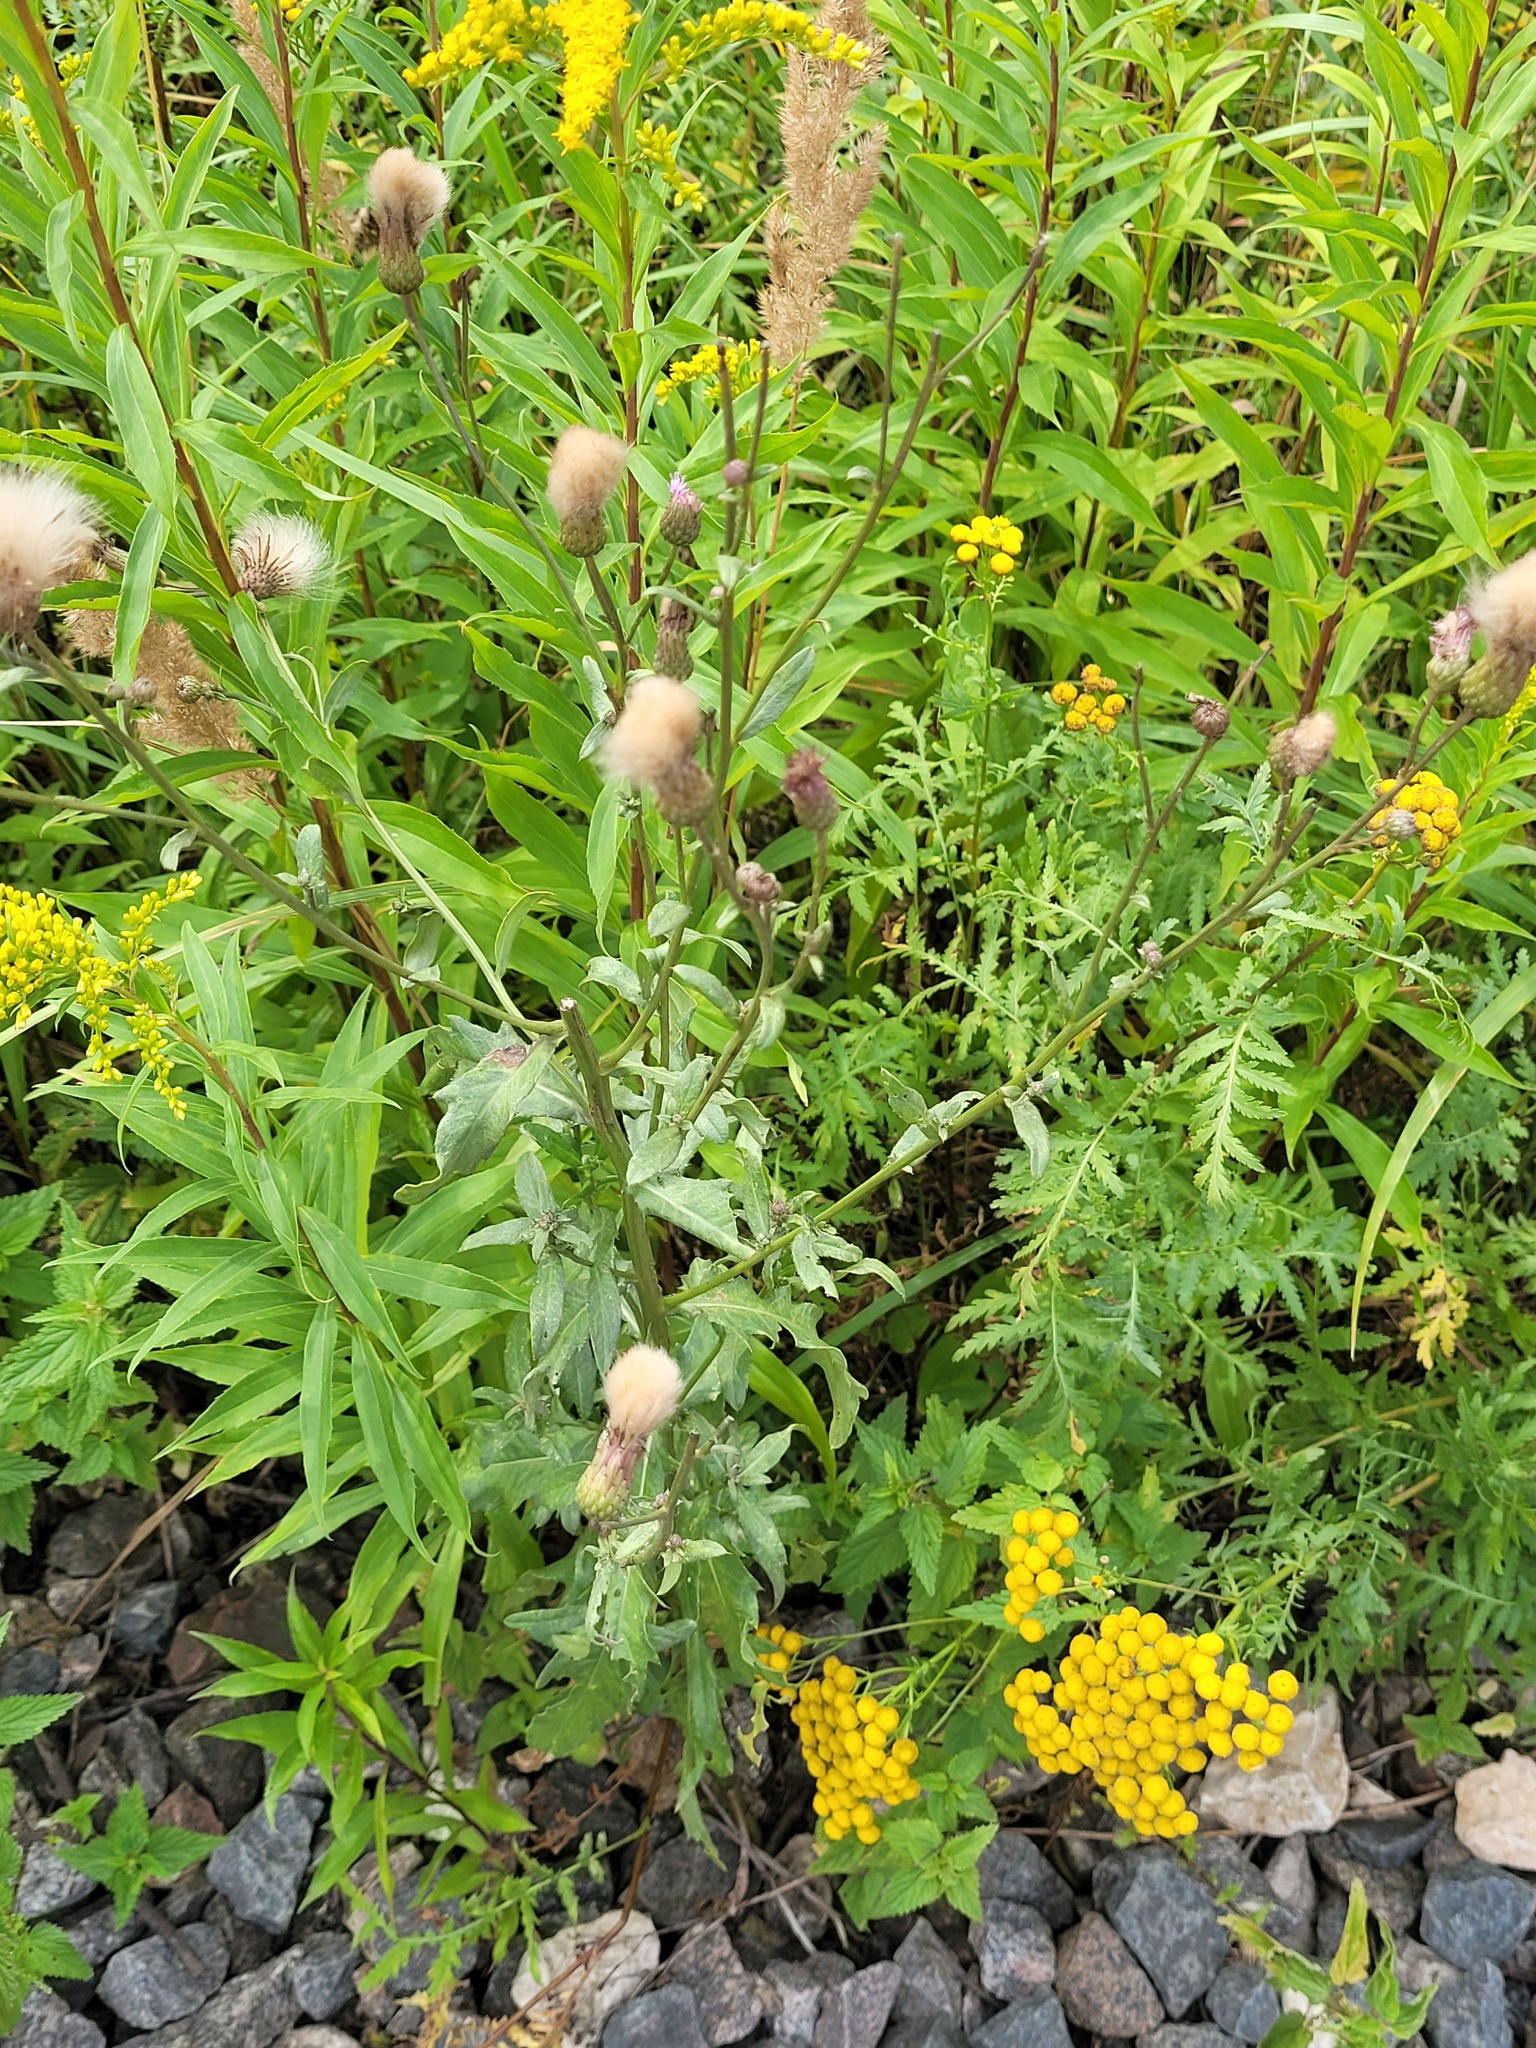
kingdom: Plantae
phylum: Tracheophyta
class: Magnoliopsida
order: Asterales
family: Asteraceae
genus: Cirsium
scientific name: Cirsium arvense
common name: Creeping thistle
